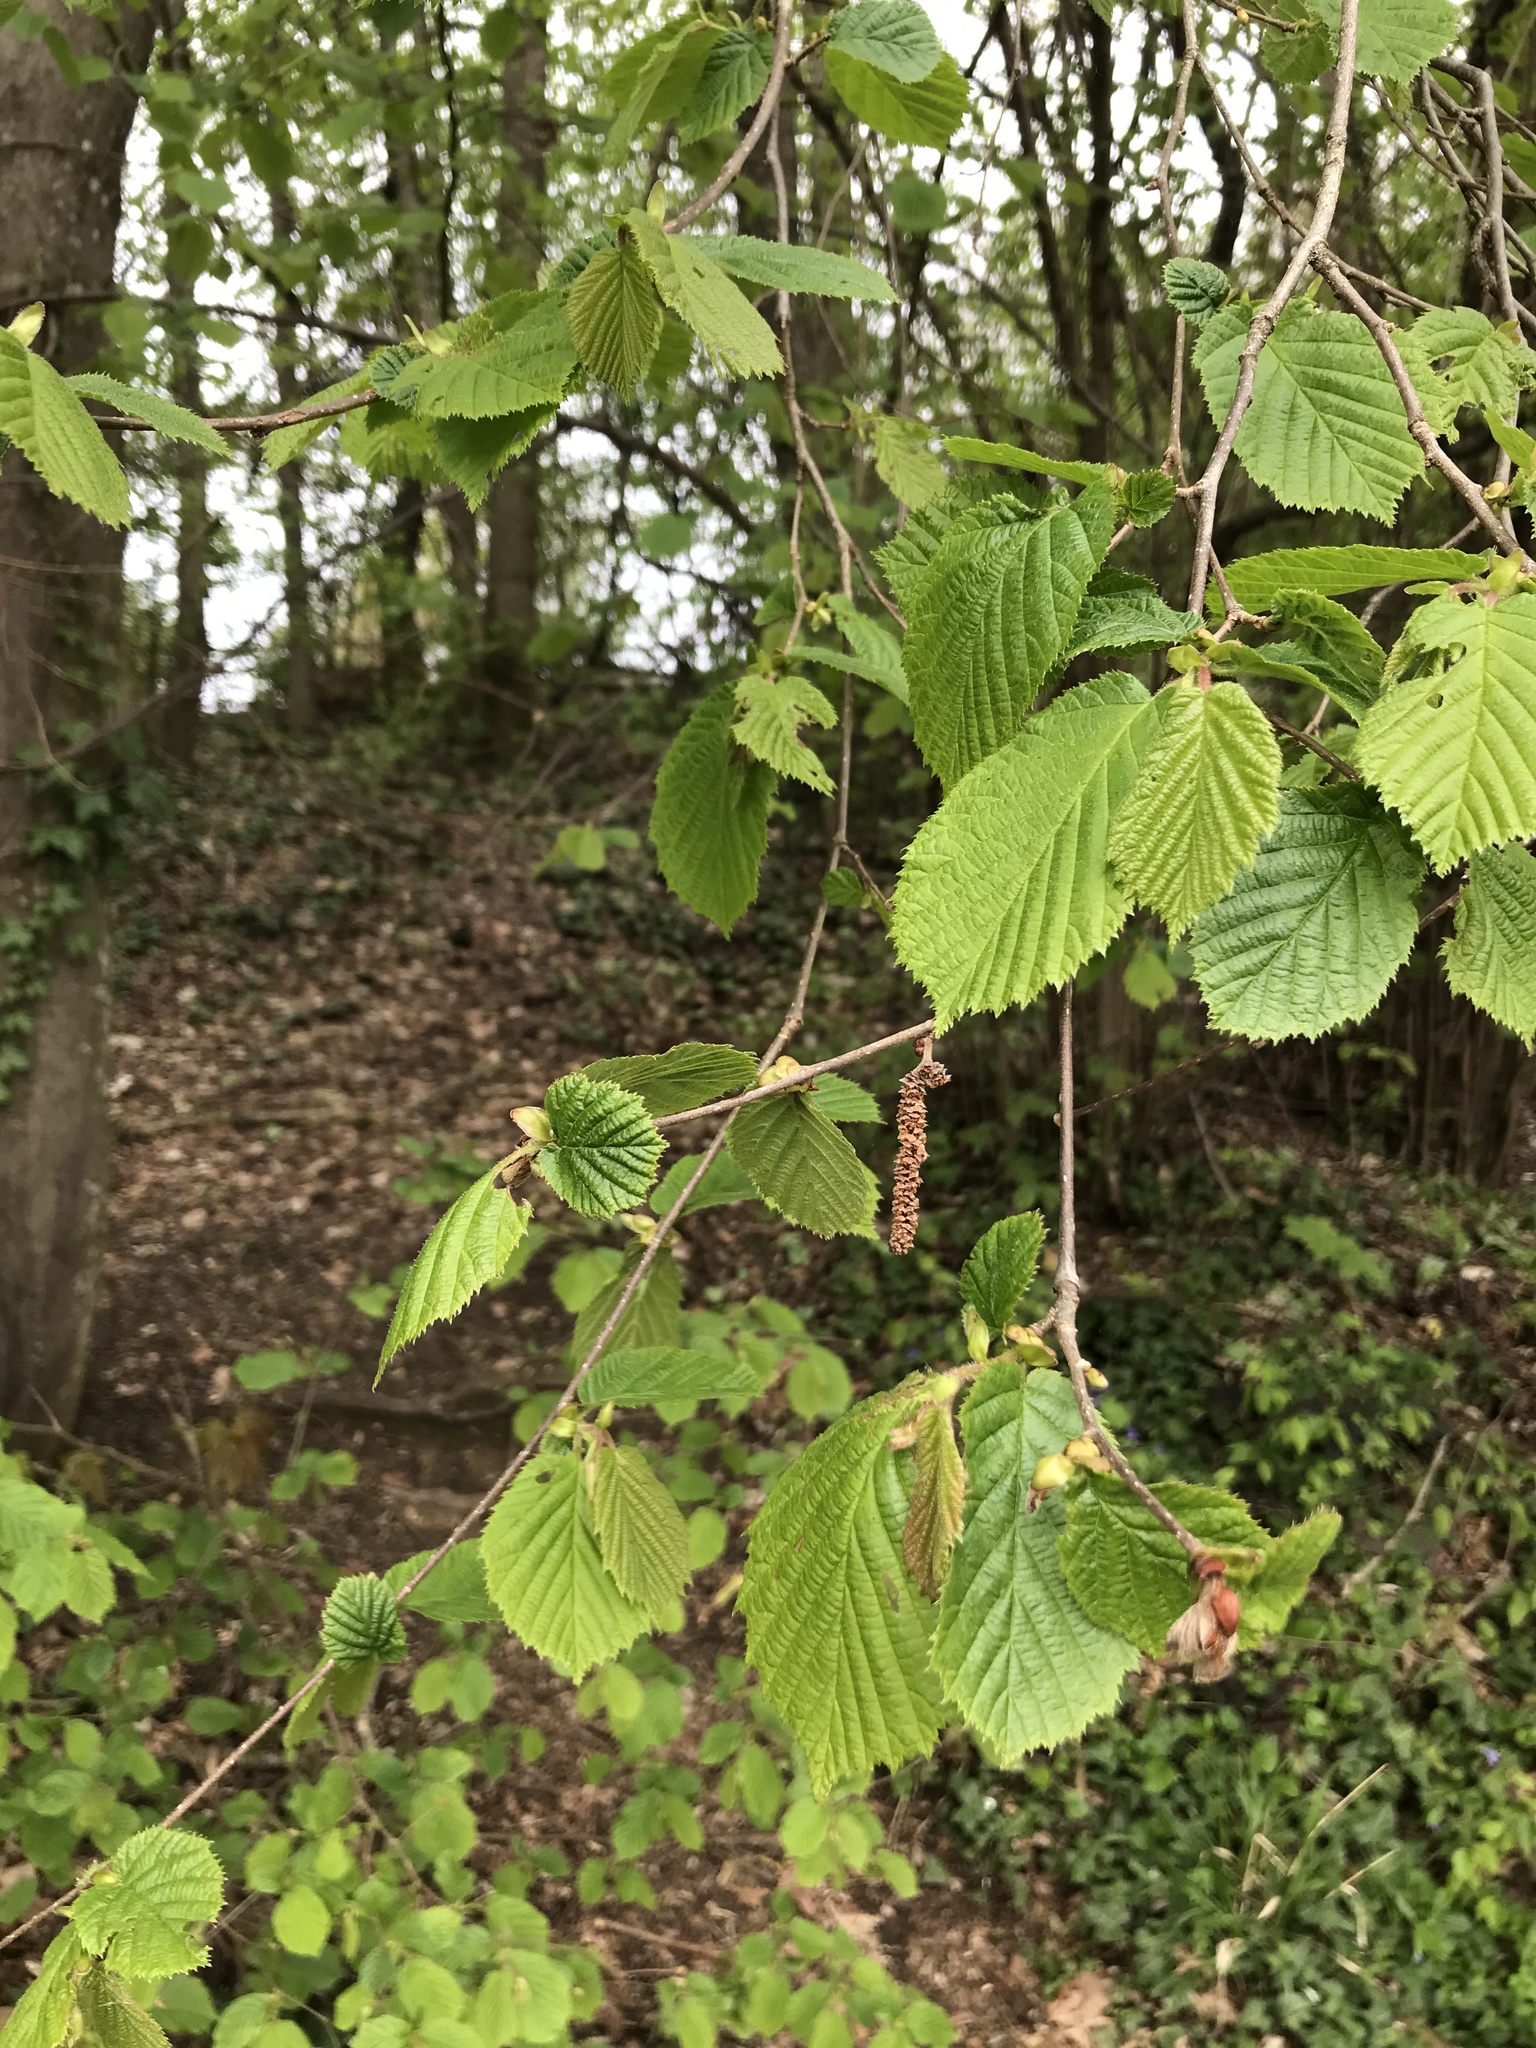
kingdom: Plantae
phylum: Tracheophyta
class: Magnoliopsida
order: Fagales
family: Betulaceae
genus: Corylus
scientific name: Corylus avellana
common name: European hazel
